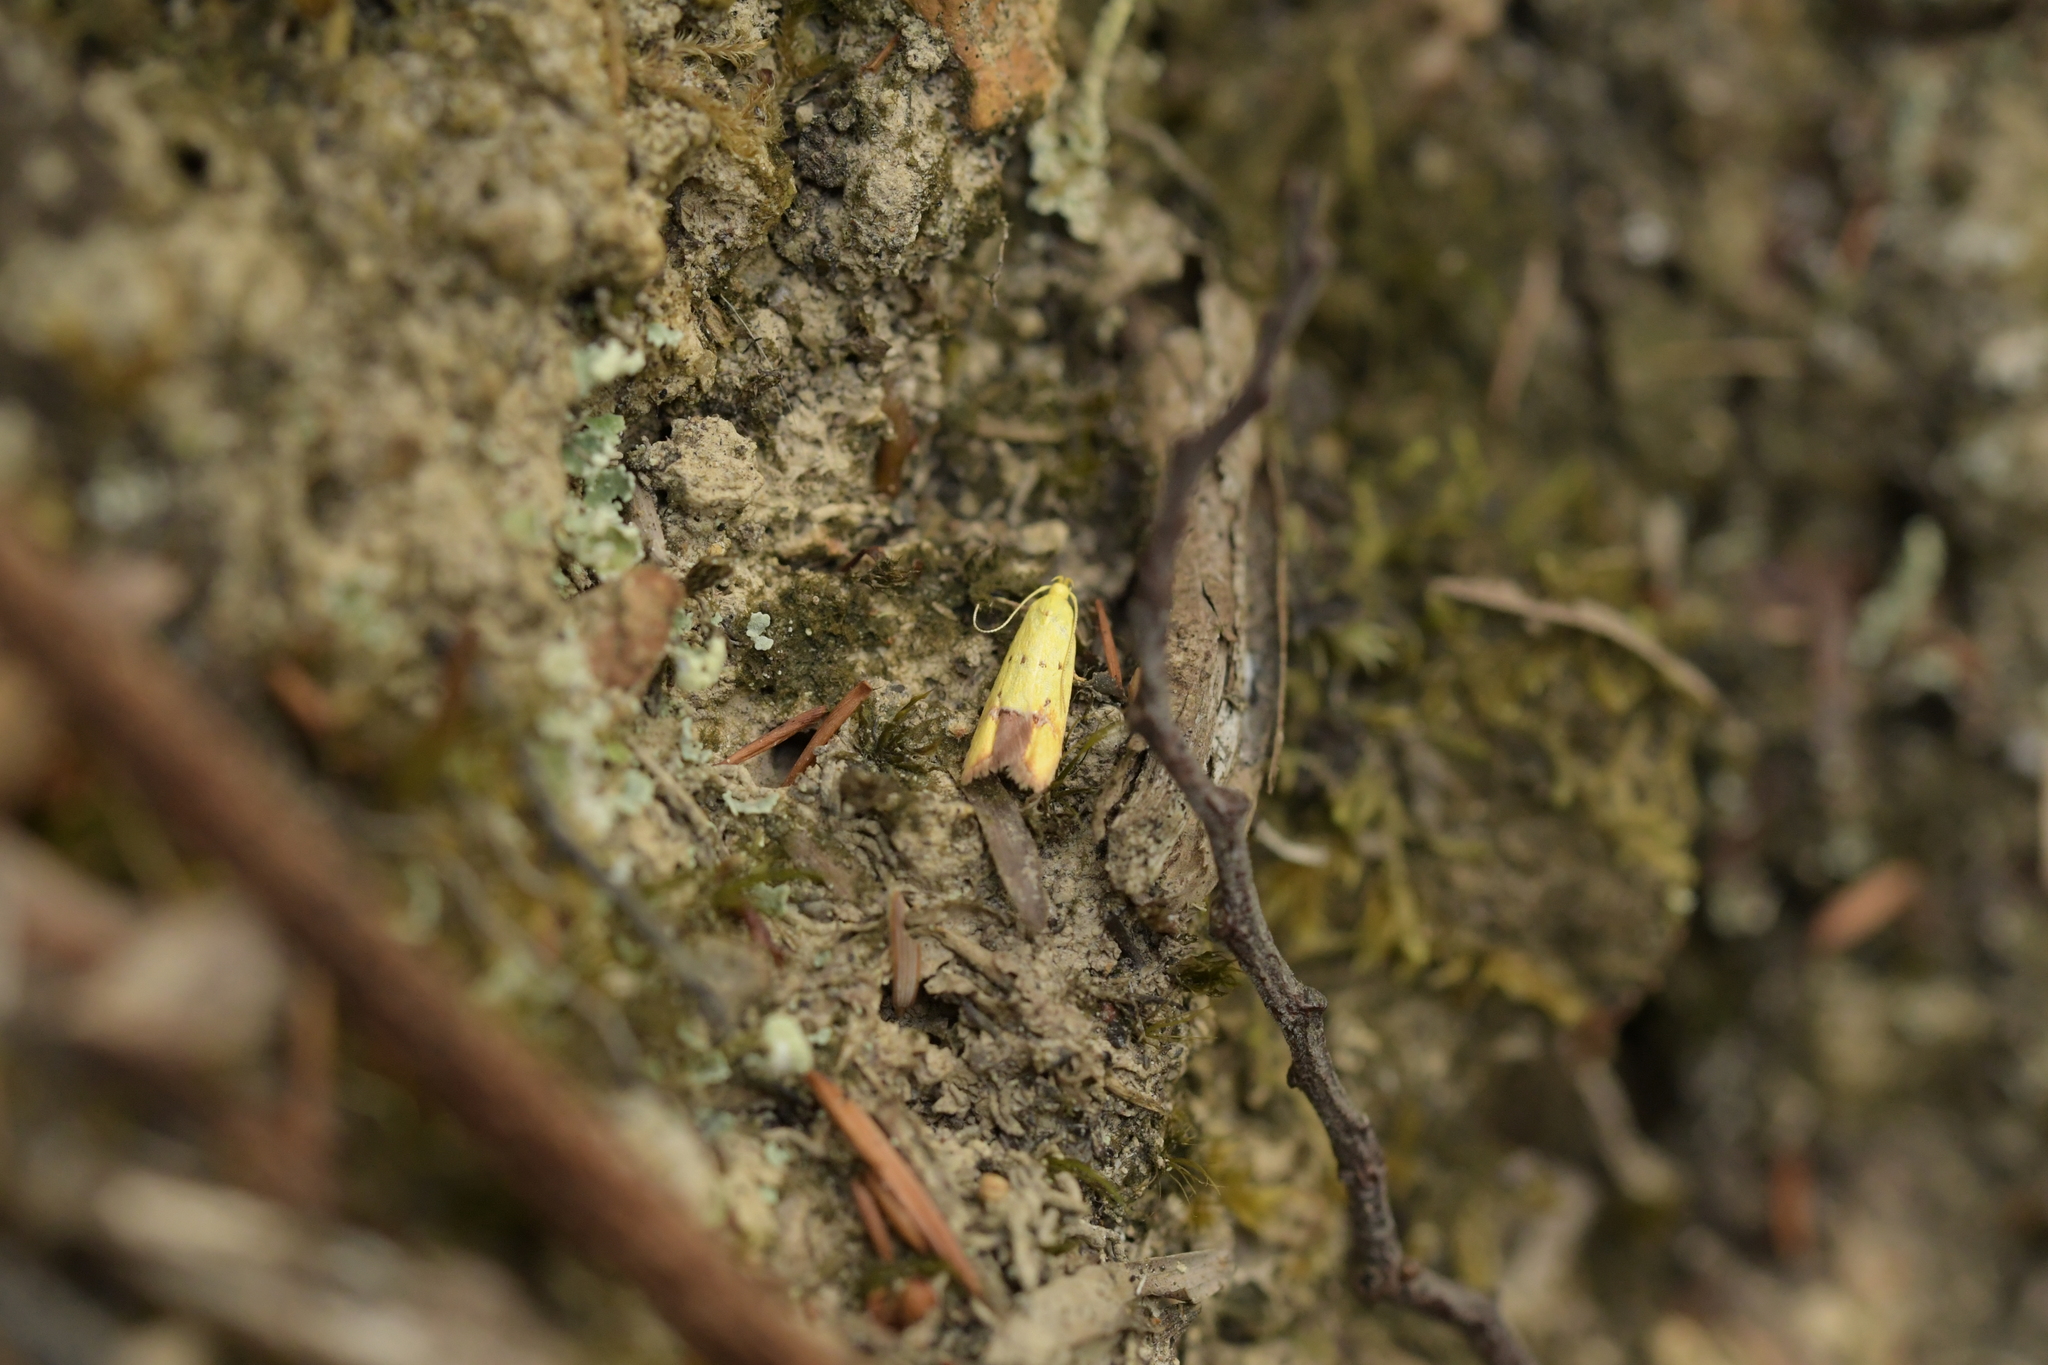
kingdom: Animalia
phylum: Arthropoda
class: Insecta
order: Lepidoptera
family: Oecophoridae
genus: Gymnobathra
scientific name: Gymnobathra flavidella
